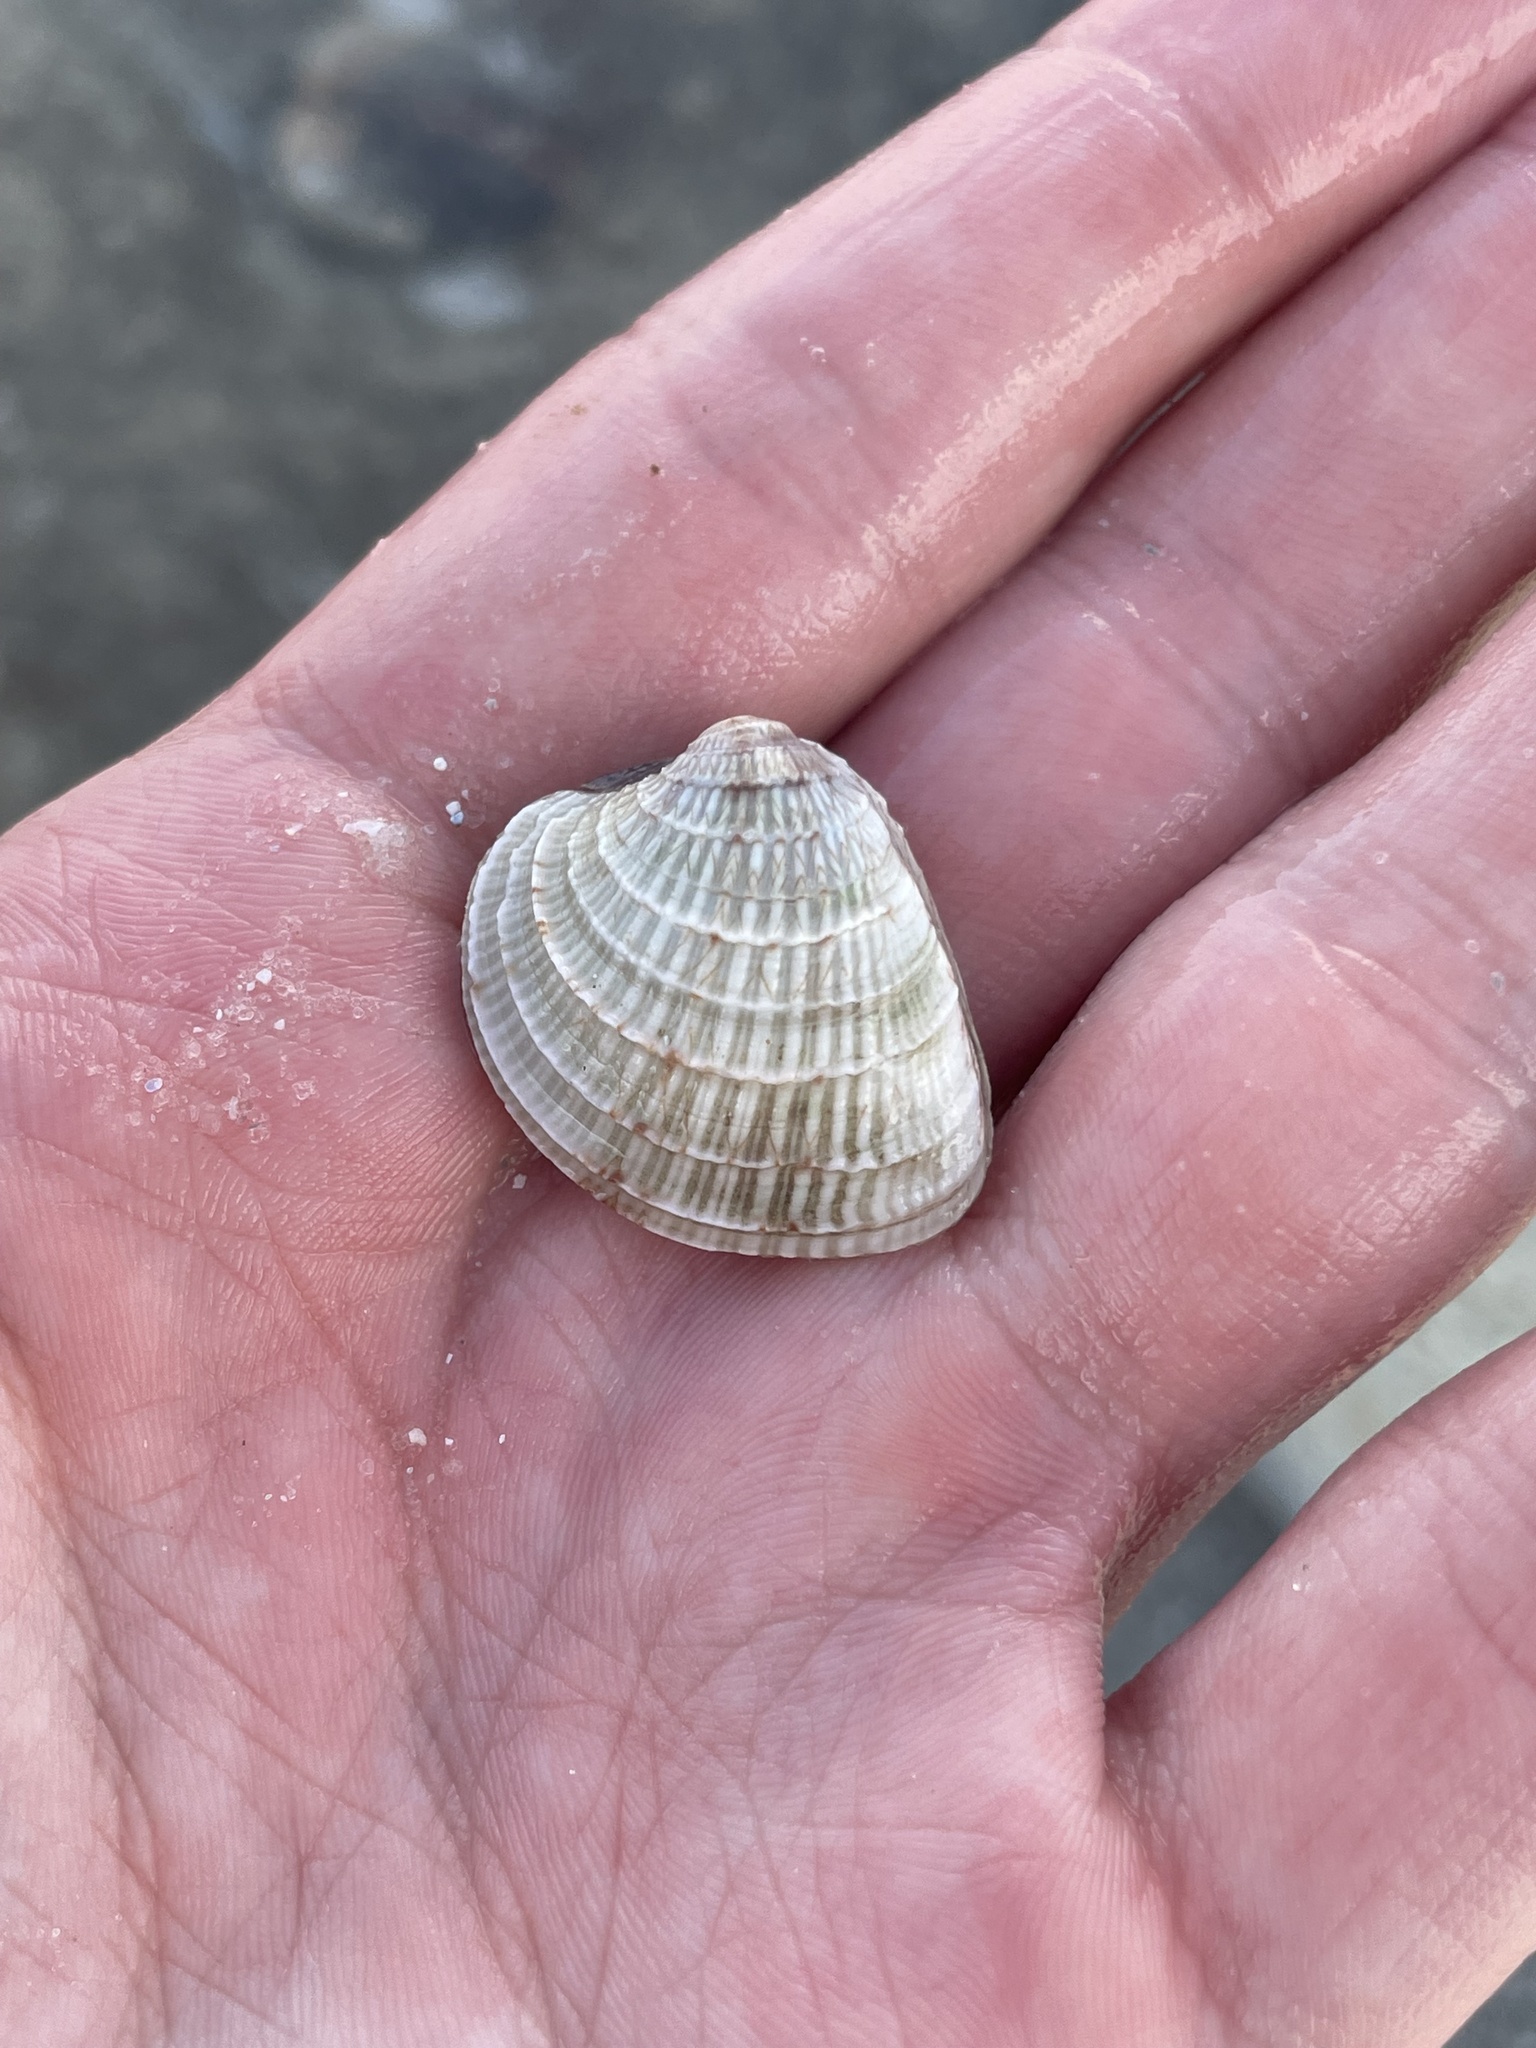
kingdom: Animalia
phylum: Mollusca
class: Bivalvia
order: Venerida
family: Veneridae
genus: Chione
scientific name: Chione elevata
